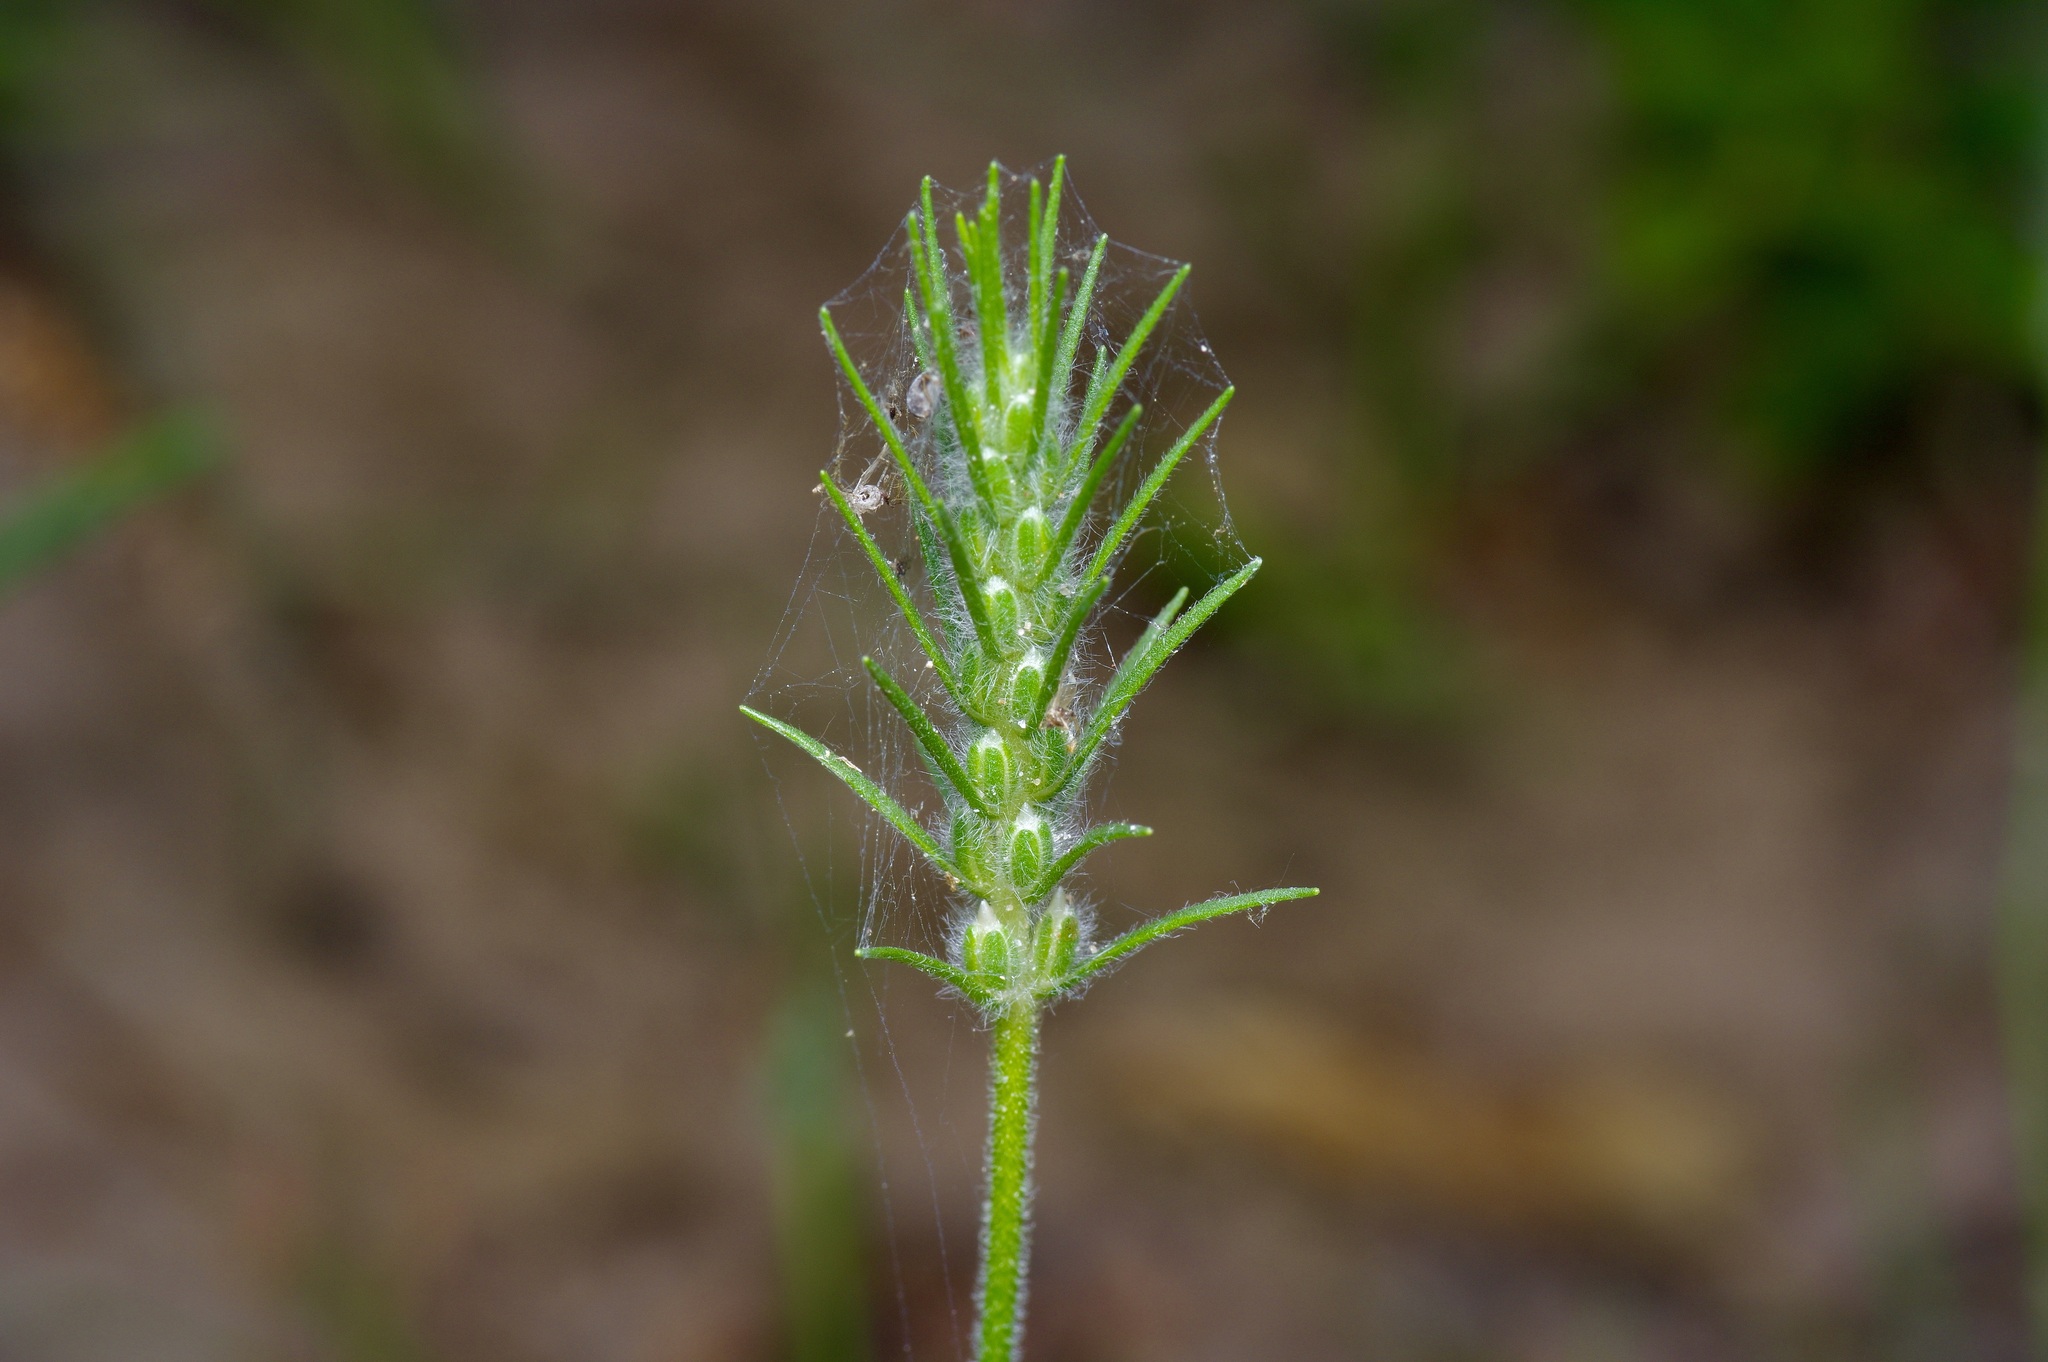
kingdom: Plantae
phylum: Tracheophyta
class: Magnoliopsida
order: Lamiales
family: Plantaginaceae
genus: Plantago
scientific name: Plantago aristata
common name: Bracted plantain
